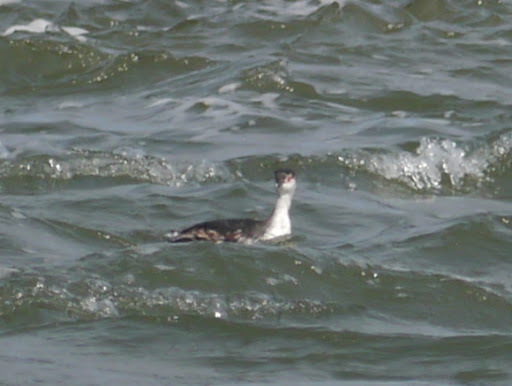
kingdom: Animalia
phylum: Chordata
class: Aves
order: Podicipediformes
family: Podicipedidae
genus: Podiceps
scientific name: Podiceps auritus
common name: Horned grebe
